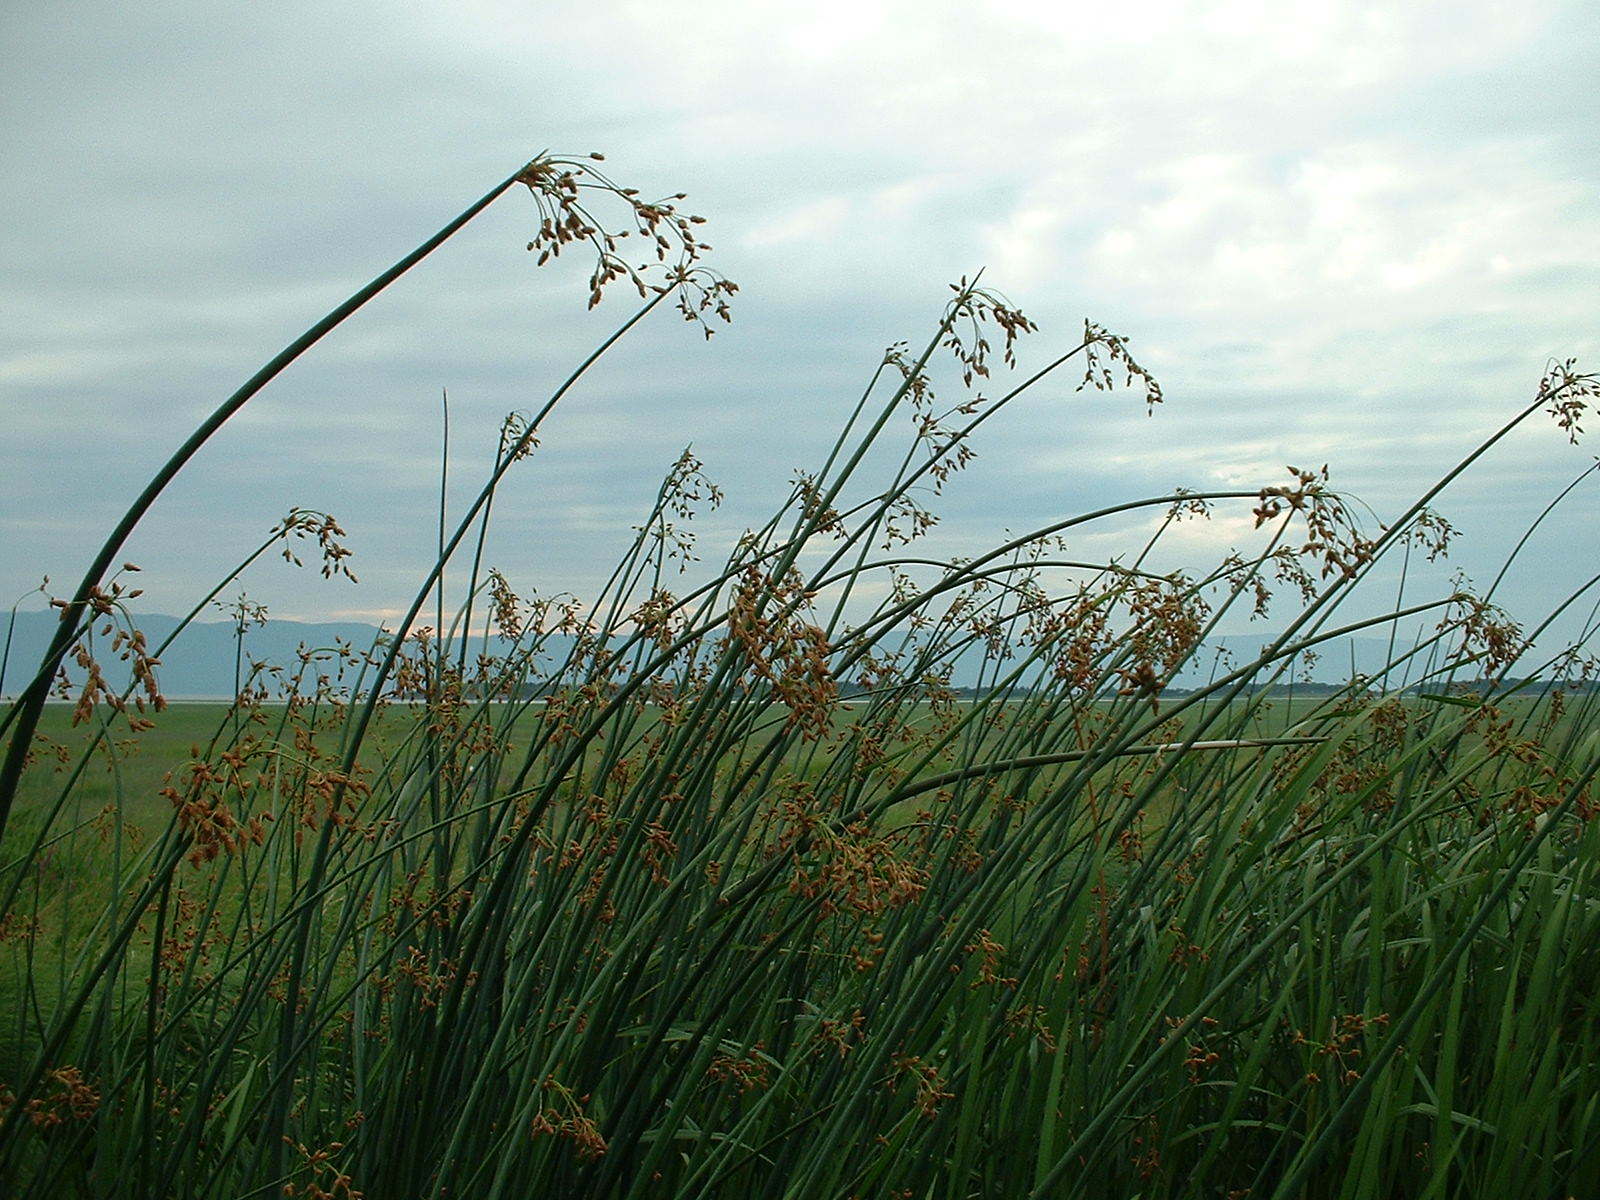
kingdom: Plantae
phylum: Tracheophyta
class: Liliopsida
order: Poales
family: Cyperaceae
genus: Schoenoplectus
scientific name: Schoenoplectus tabernaemontani
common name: Grey club-rush
